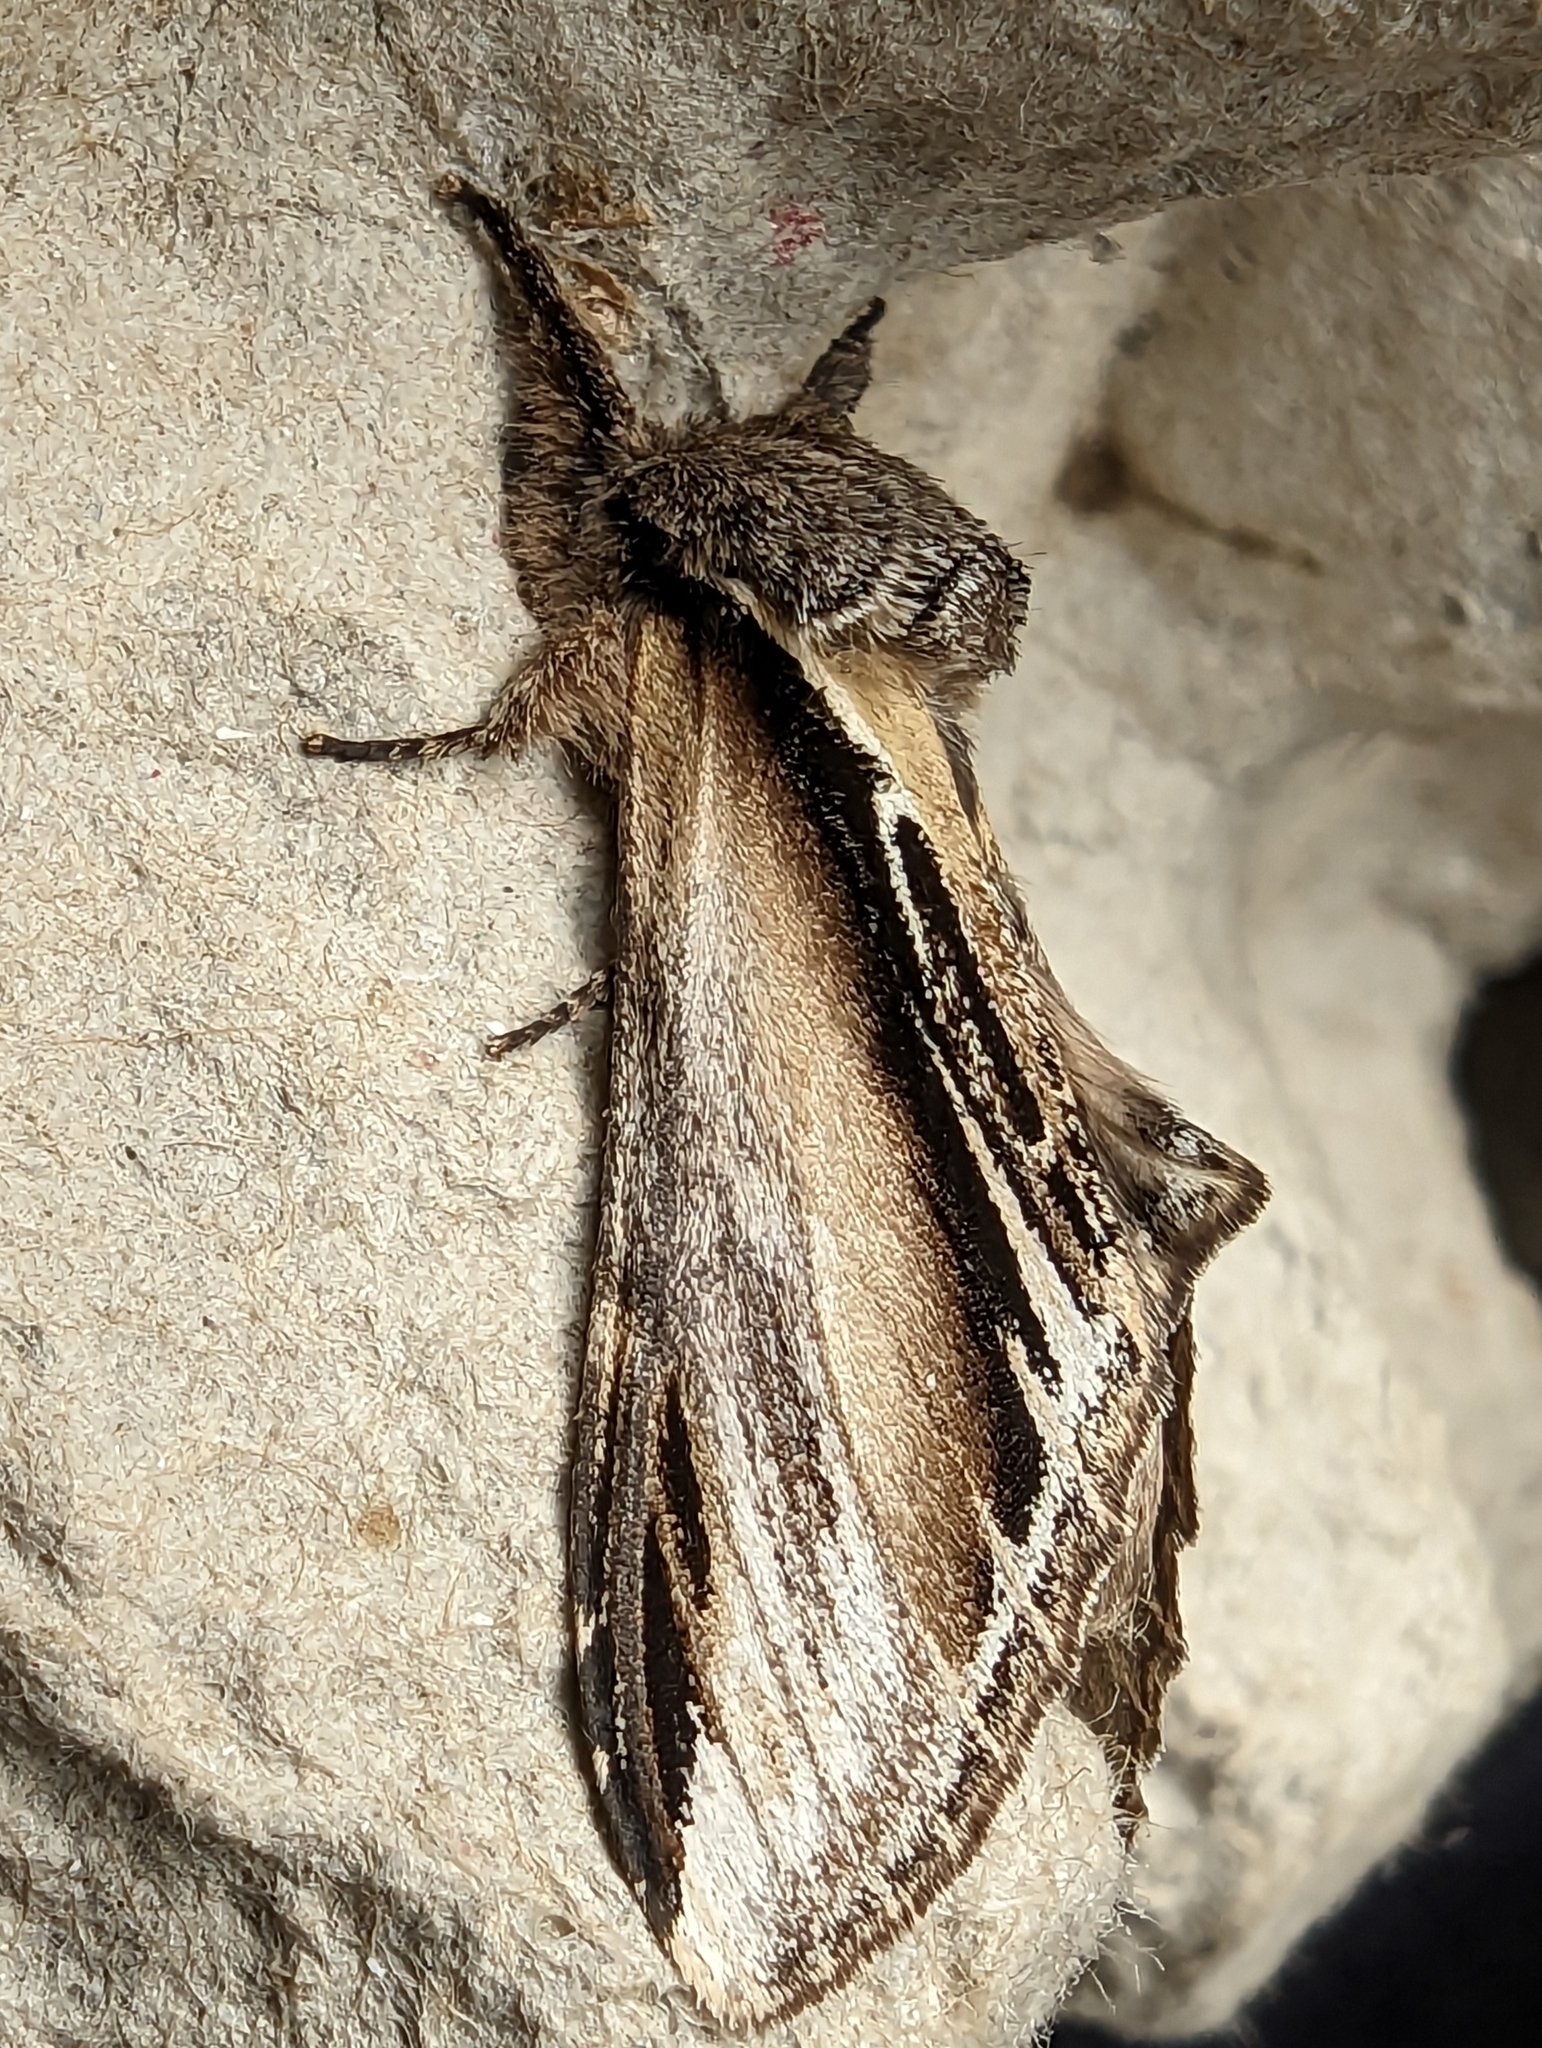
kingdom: Animalia
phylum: Arthropoda
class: Insecta
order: Lepidoptera
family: Notodontidae
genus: Pheosia
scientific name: Pheosia tremula
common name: Swallow prominent
